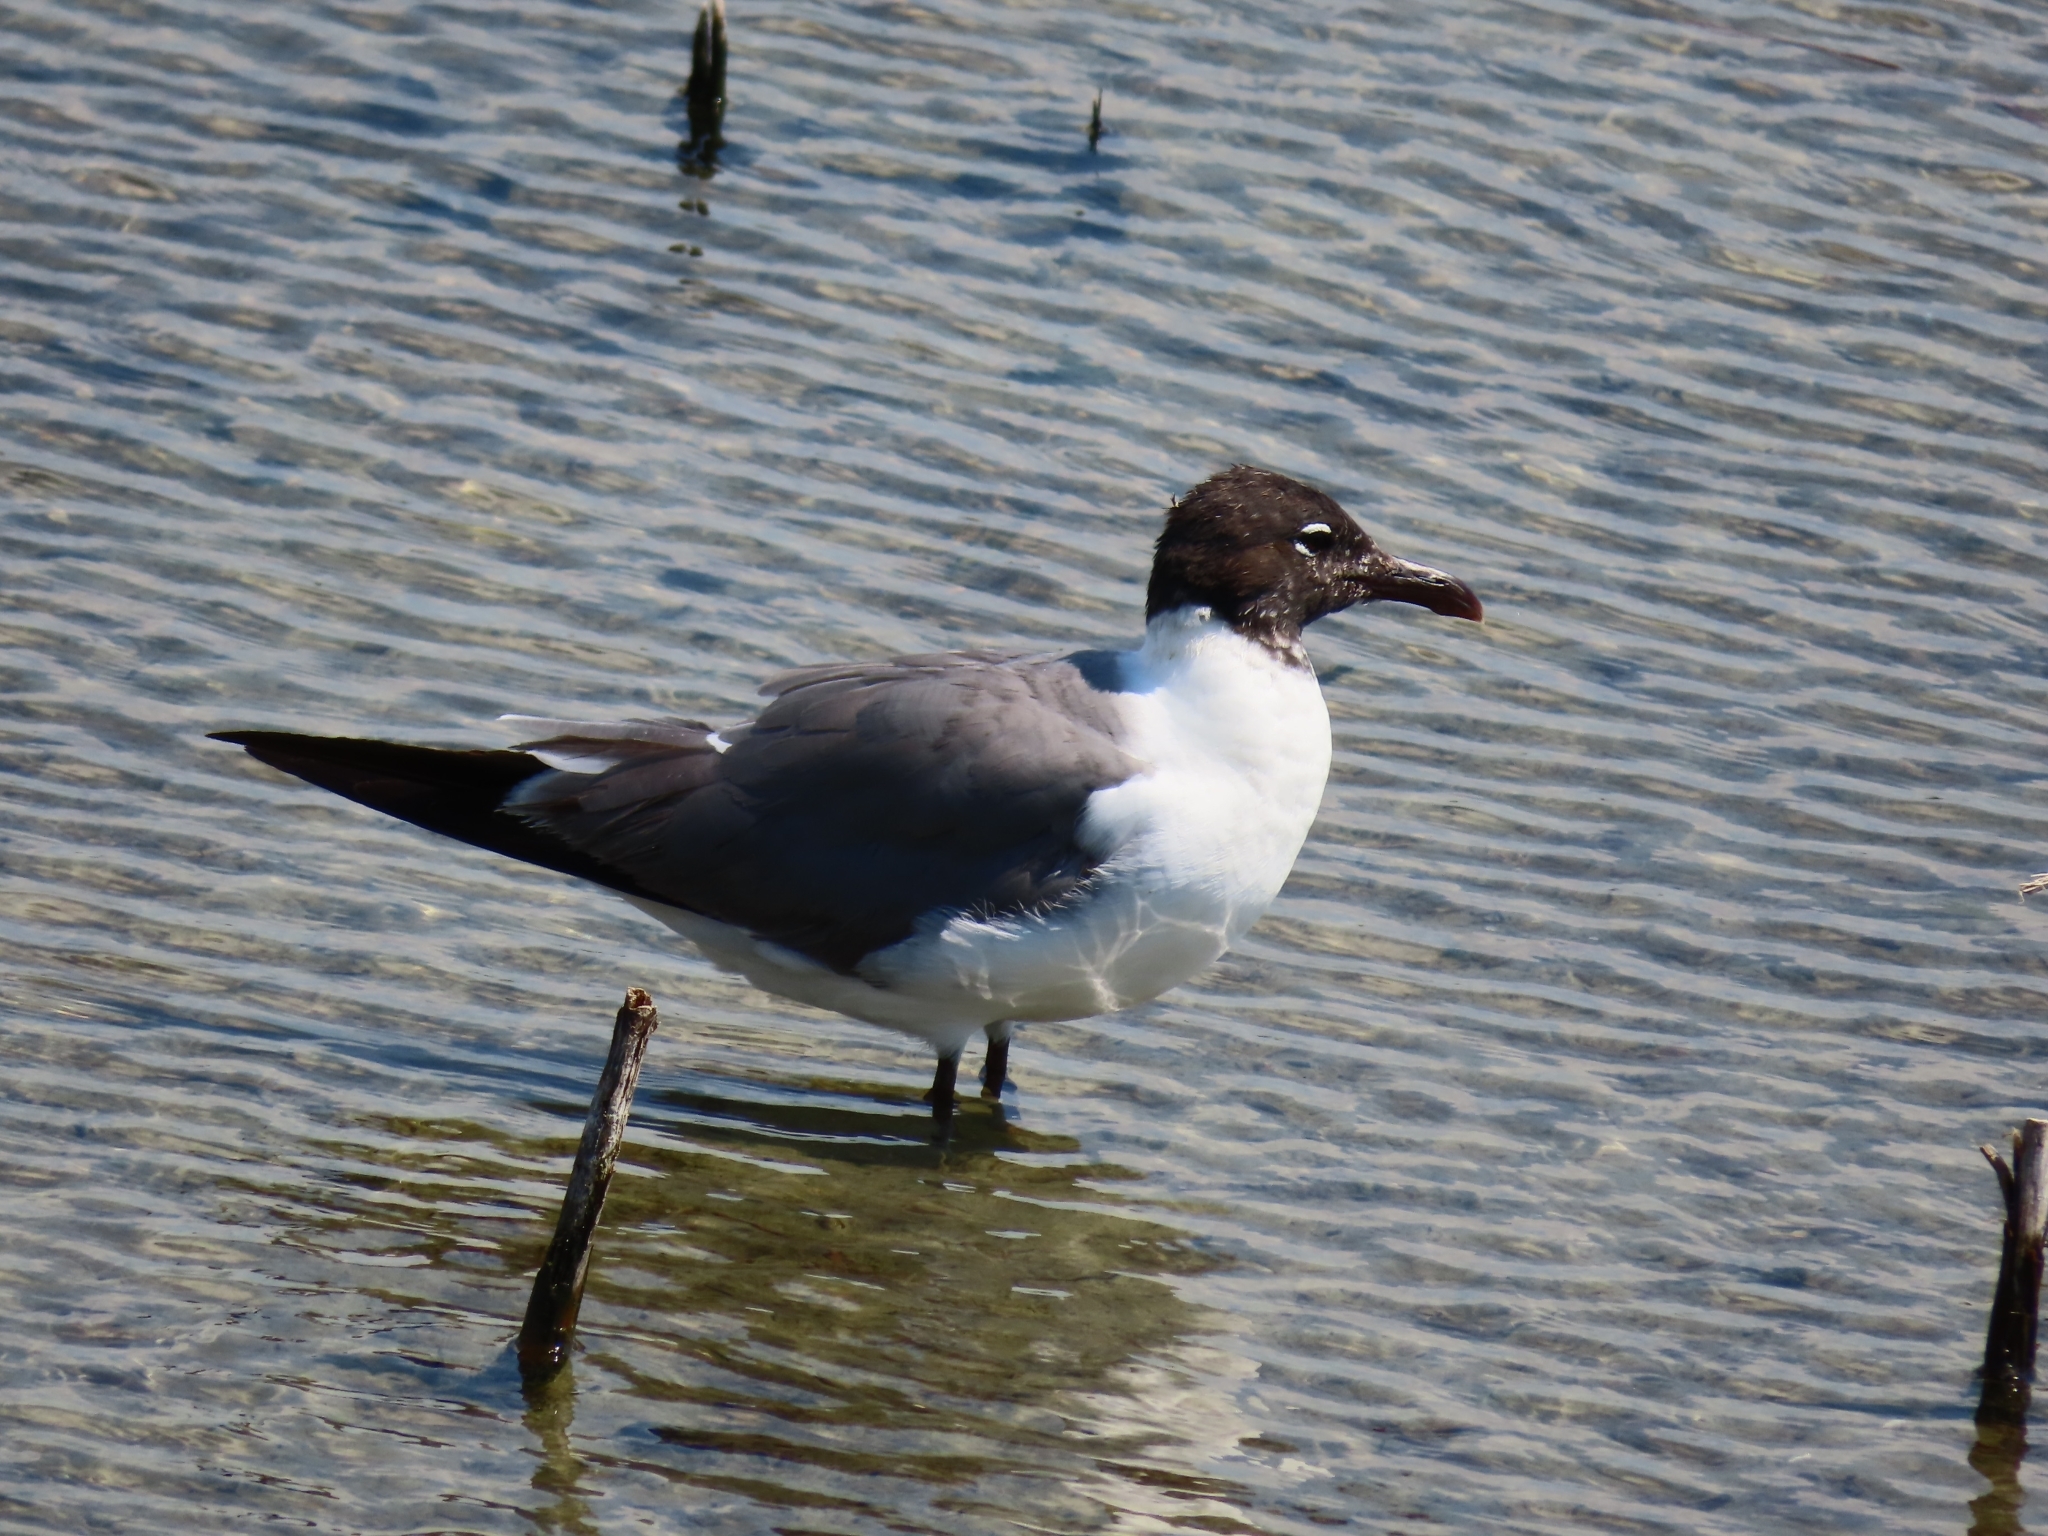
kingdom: Animalia
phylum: Chordata
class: Aves
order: Charadriiformes
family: Laridae
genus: Leucophaeus
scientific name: Leucophaeus atricilla
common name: Laughing gull
